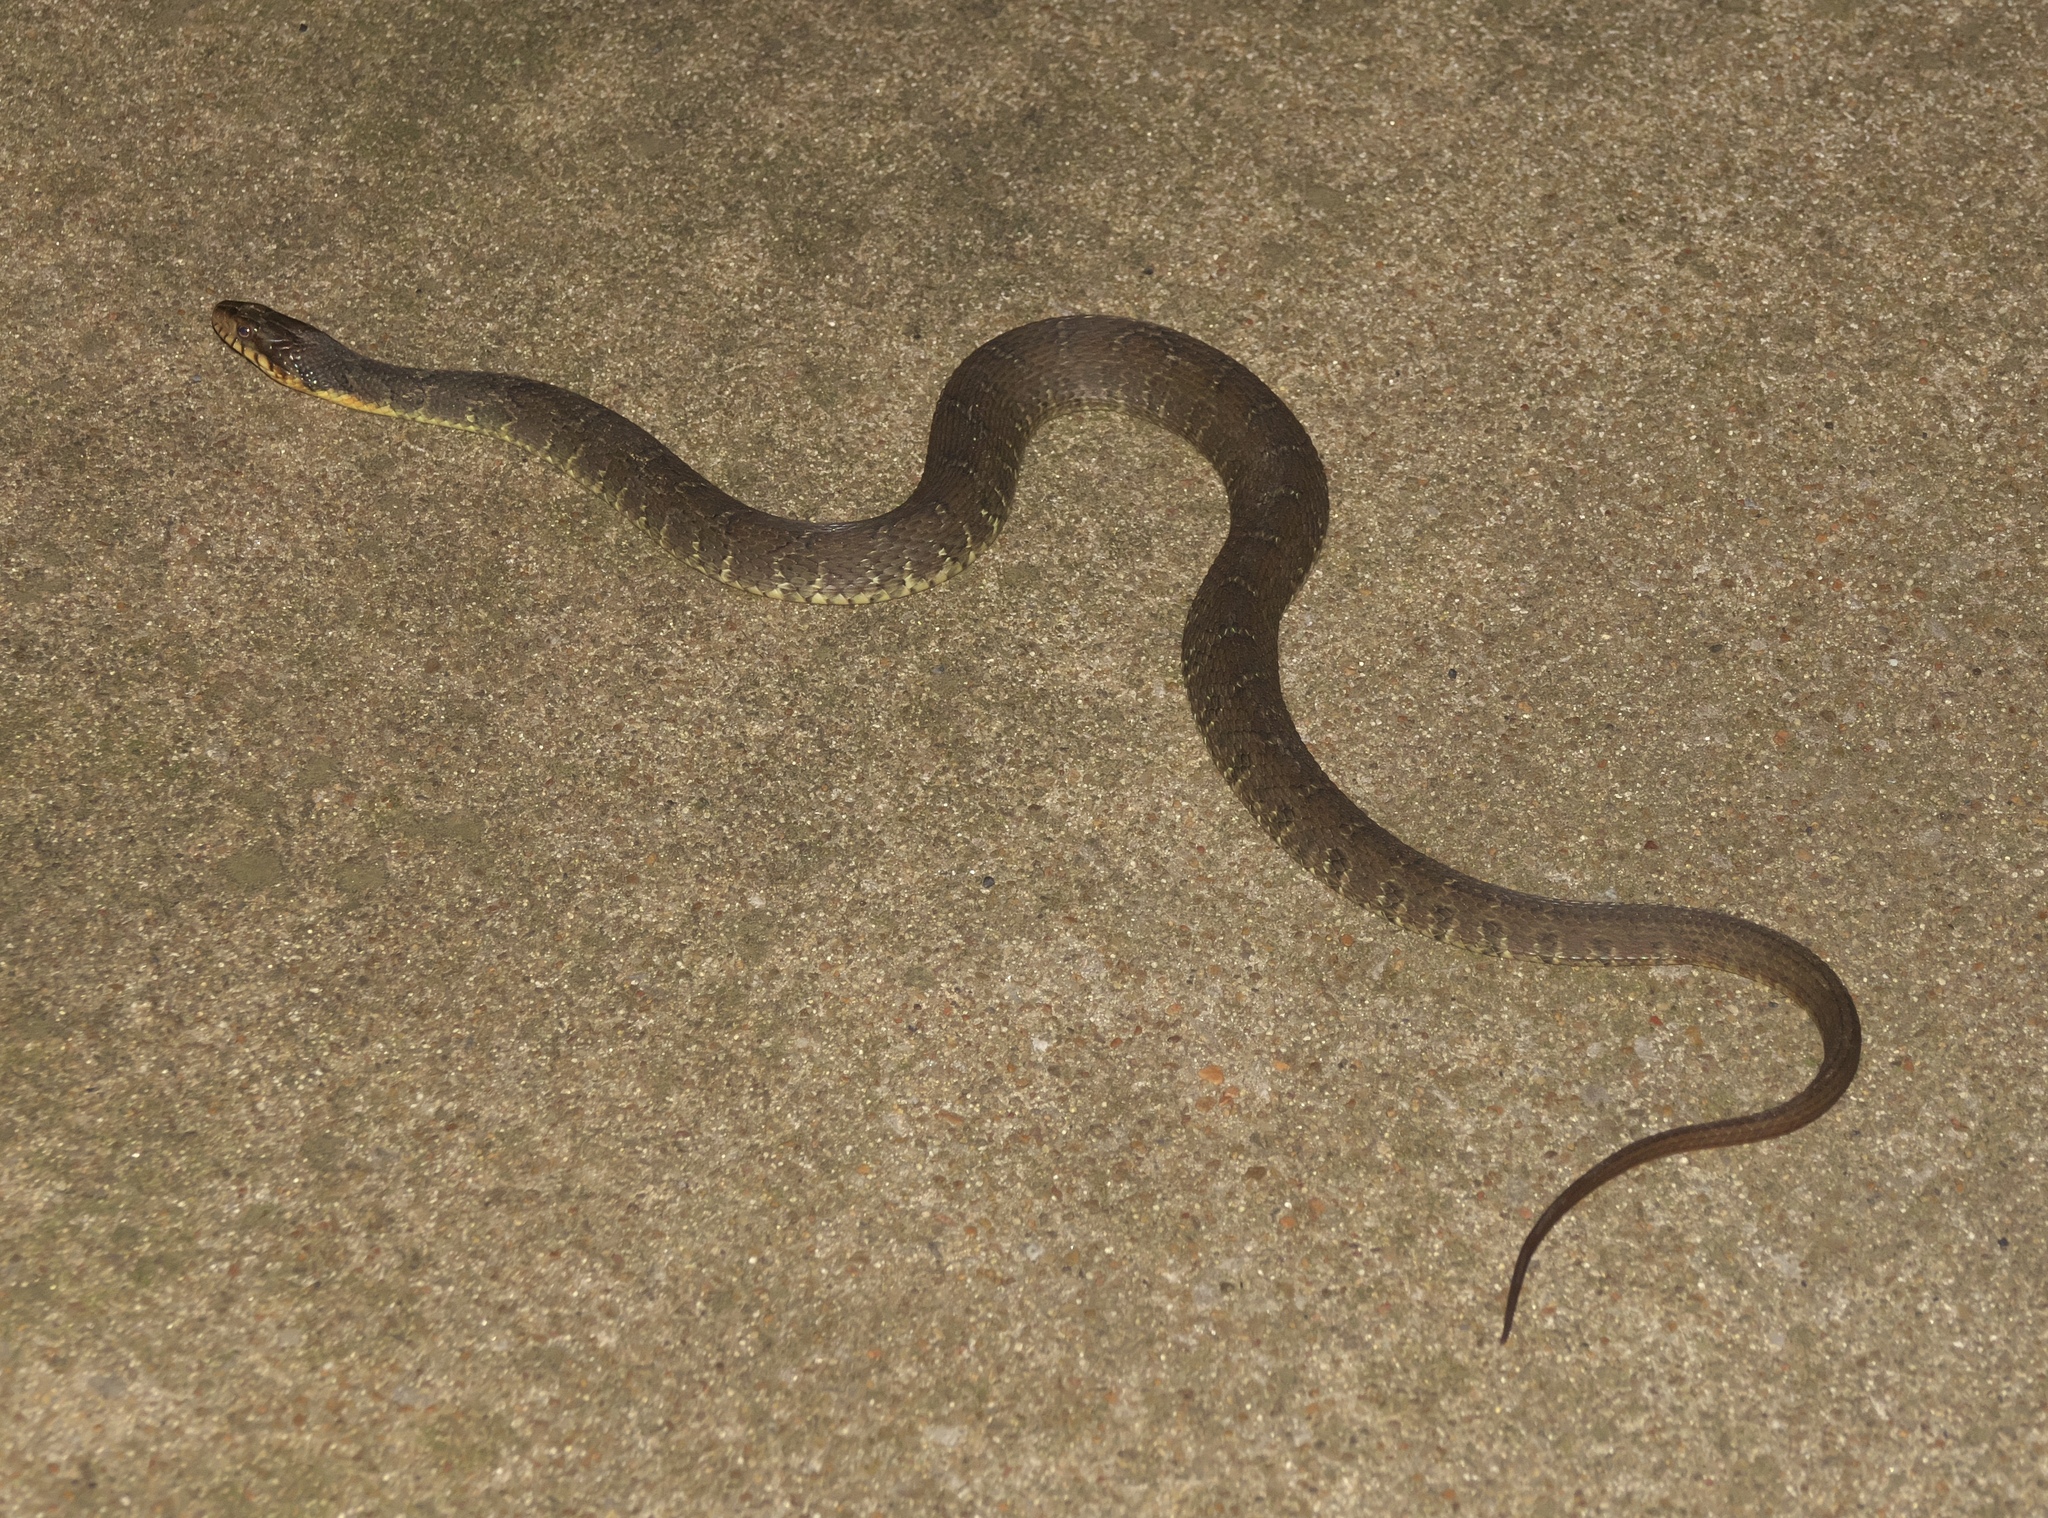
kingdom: Animalia
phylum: Chordata
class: Squamata
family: Colubridae
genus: Nerodia
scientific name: Nerodia erythrogaster
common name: Plainbelly water snake
